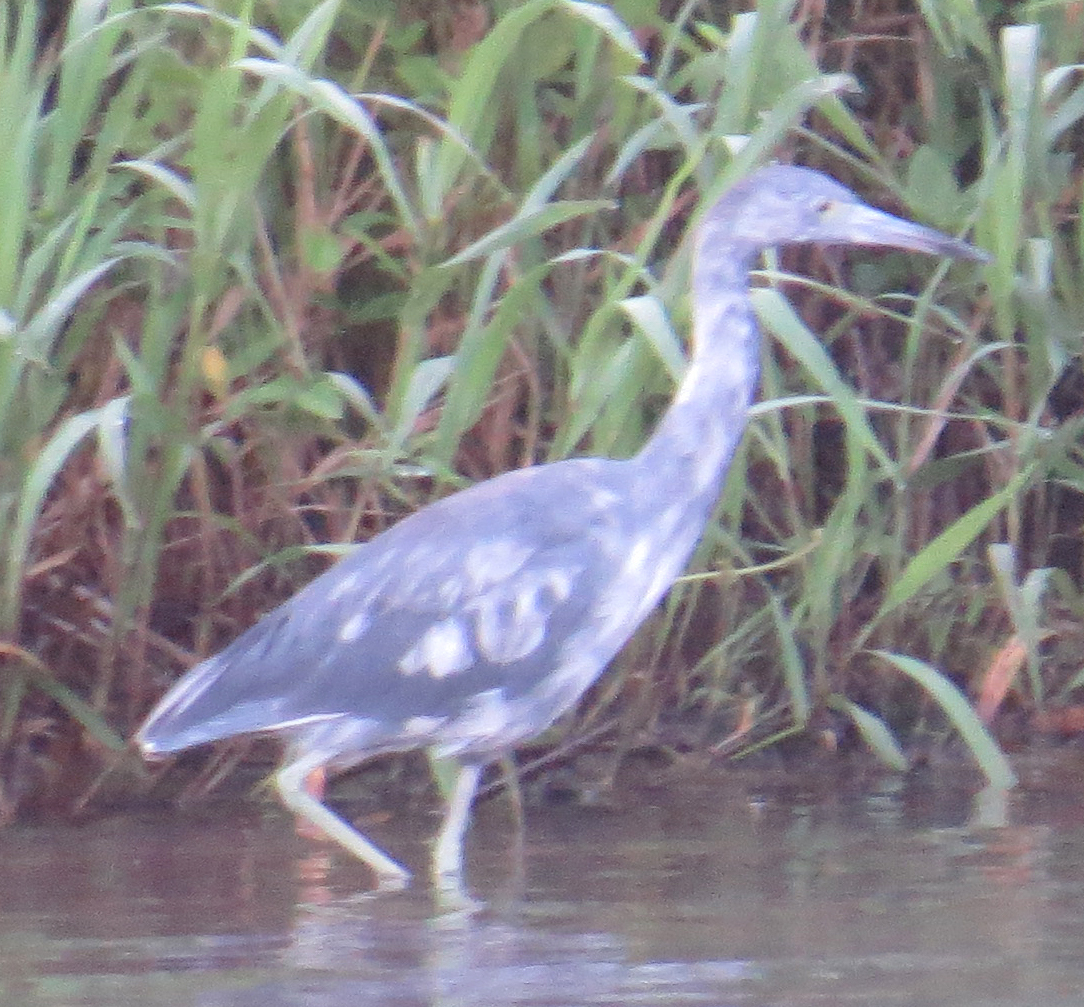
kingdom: Animalia
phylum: Chordata
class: Aves
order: Pelecaniformes
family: Ardeidae
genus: Egretta
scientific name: Egretta caerulea
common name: Little blue heron
